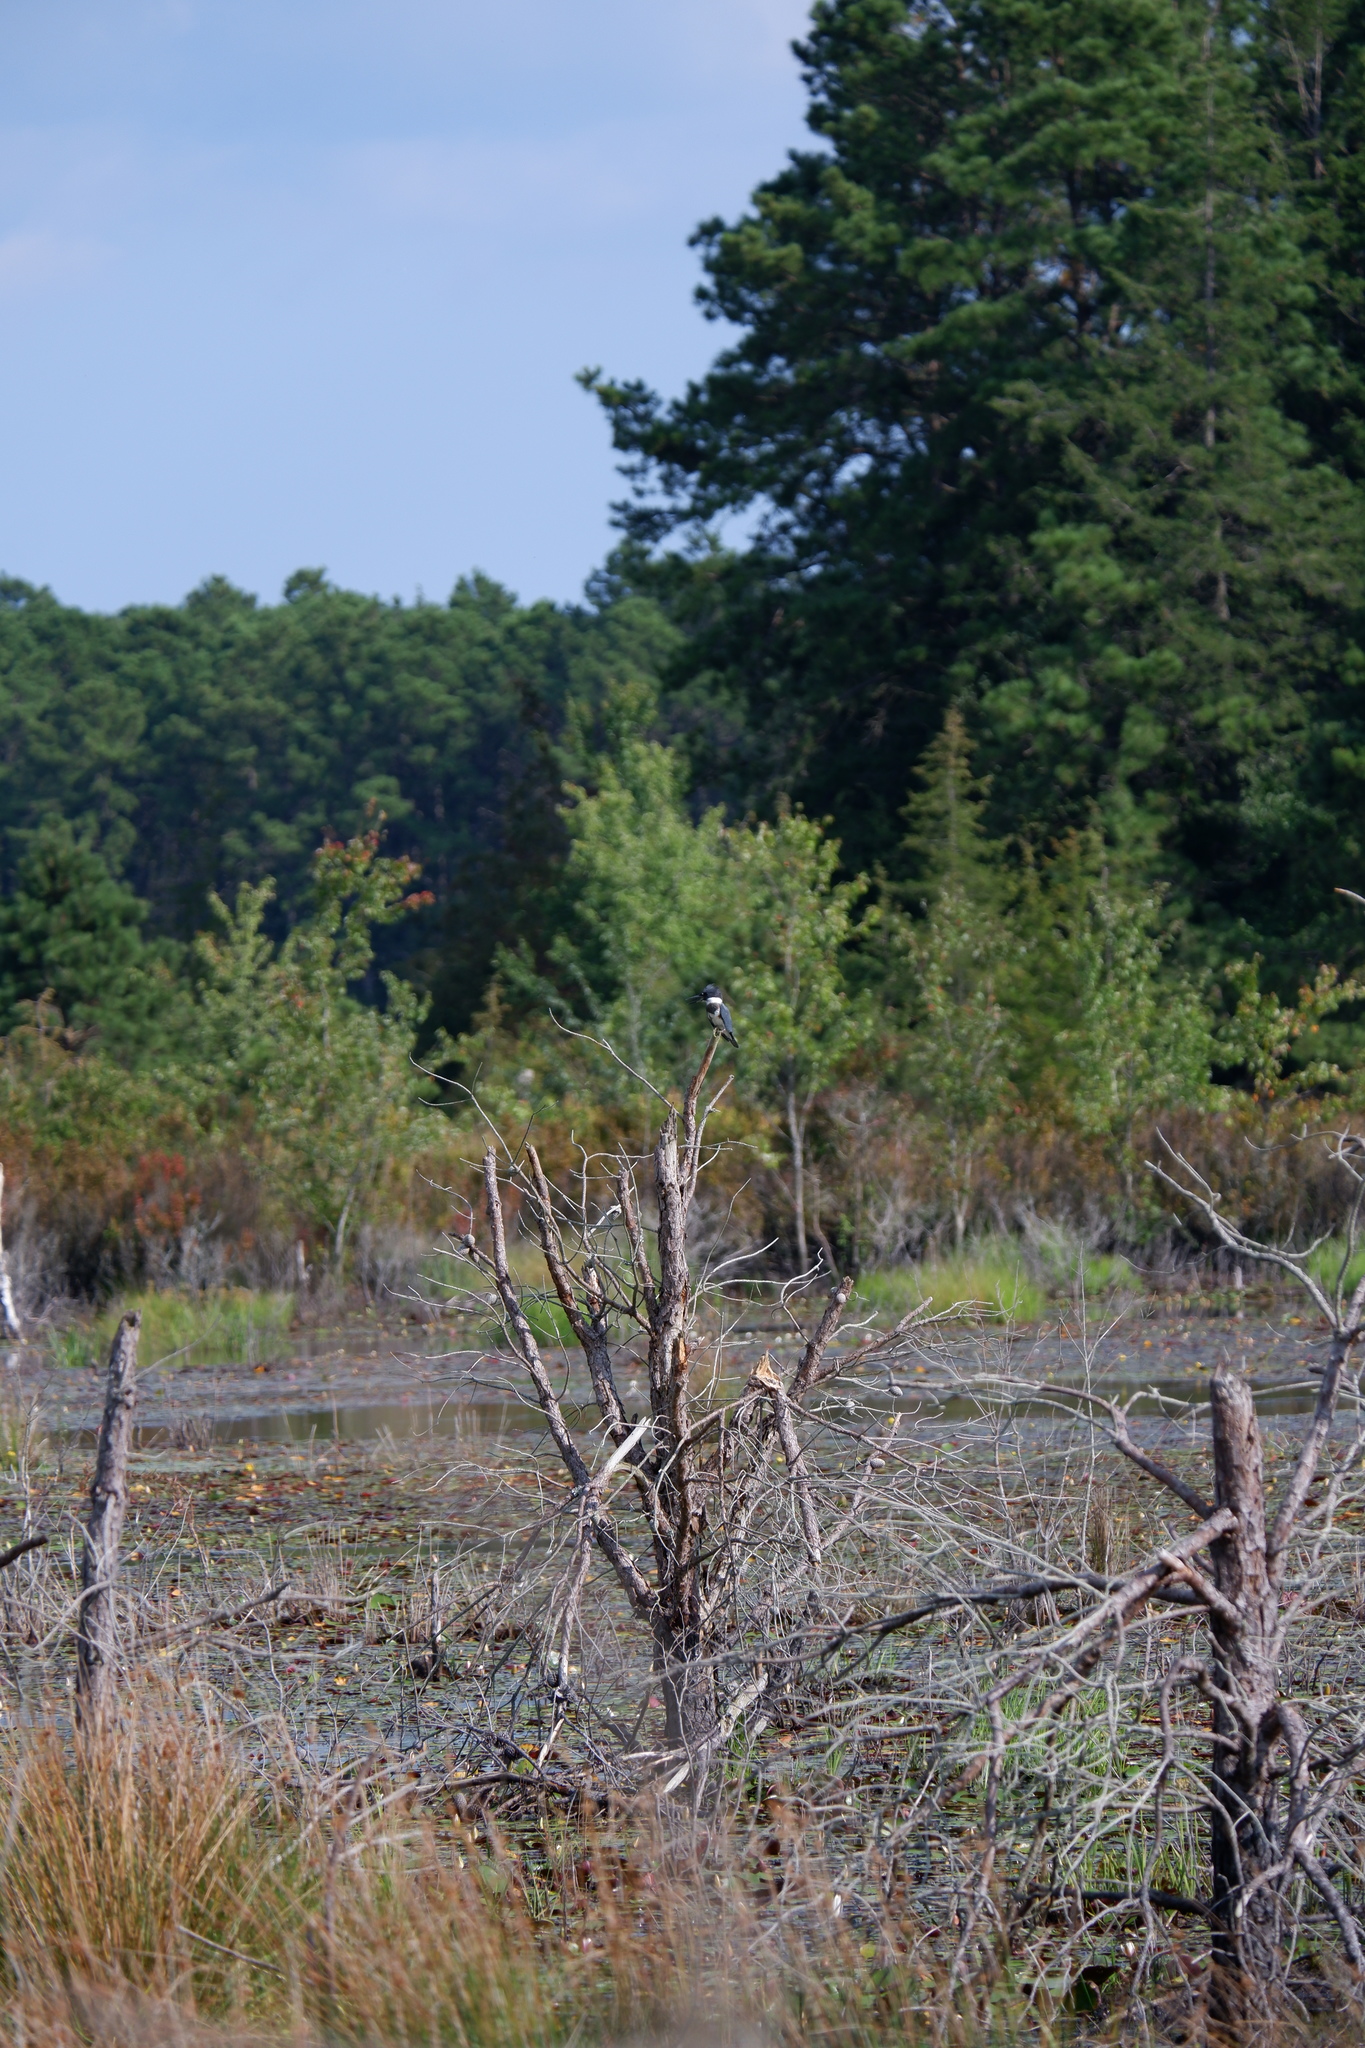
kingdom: Animalia
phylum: Chordata
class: Aves
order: Coraciiformes
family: Alcedinidae
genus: Megaceryle
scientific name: Megaceryle alcyon
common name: Belted kingfisher
